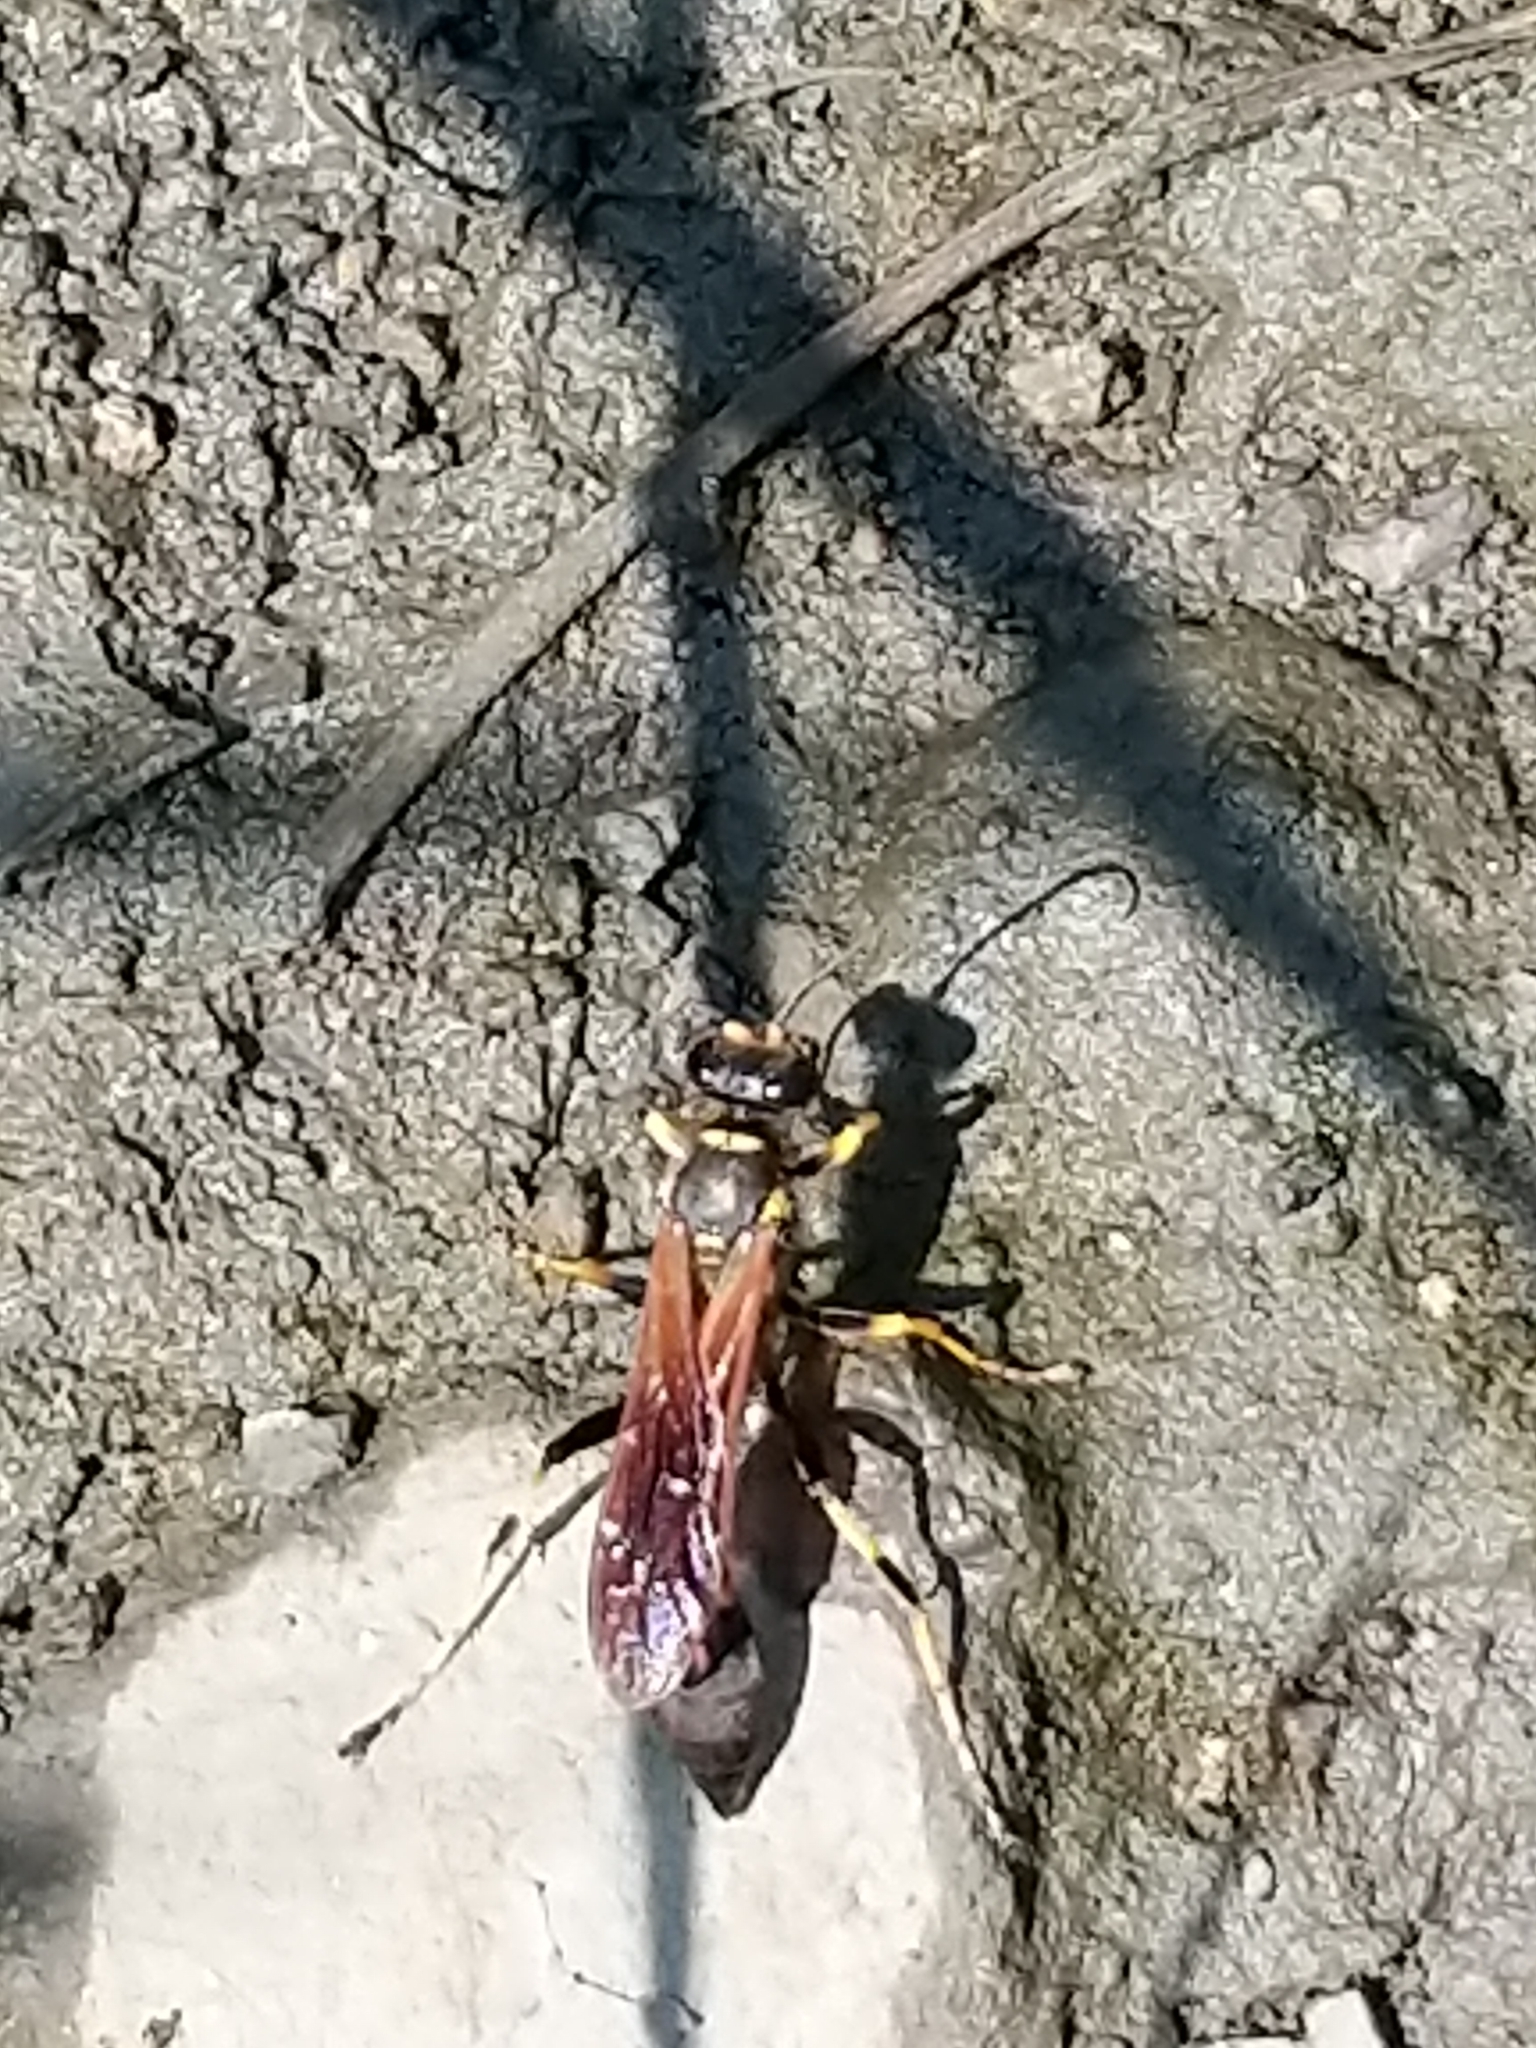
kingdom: Animalia
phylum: Arthropoda
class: Insecta
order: Hymenoptera
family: Sphecidae
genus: Sceliphron
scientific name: Sceliphron caementarium
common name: Mud dauber
